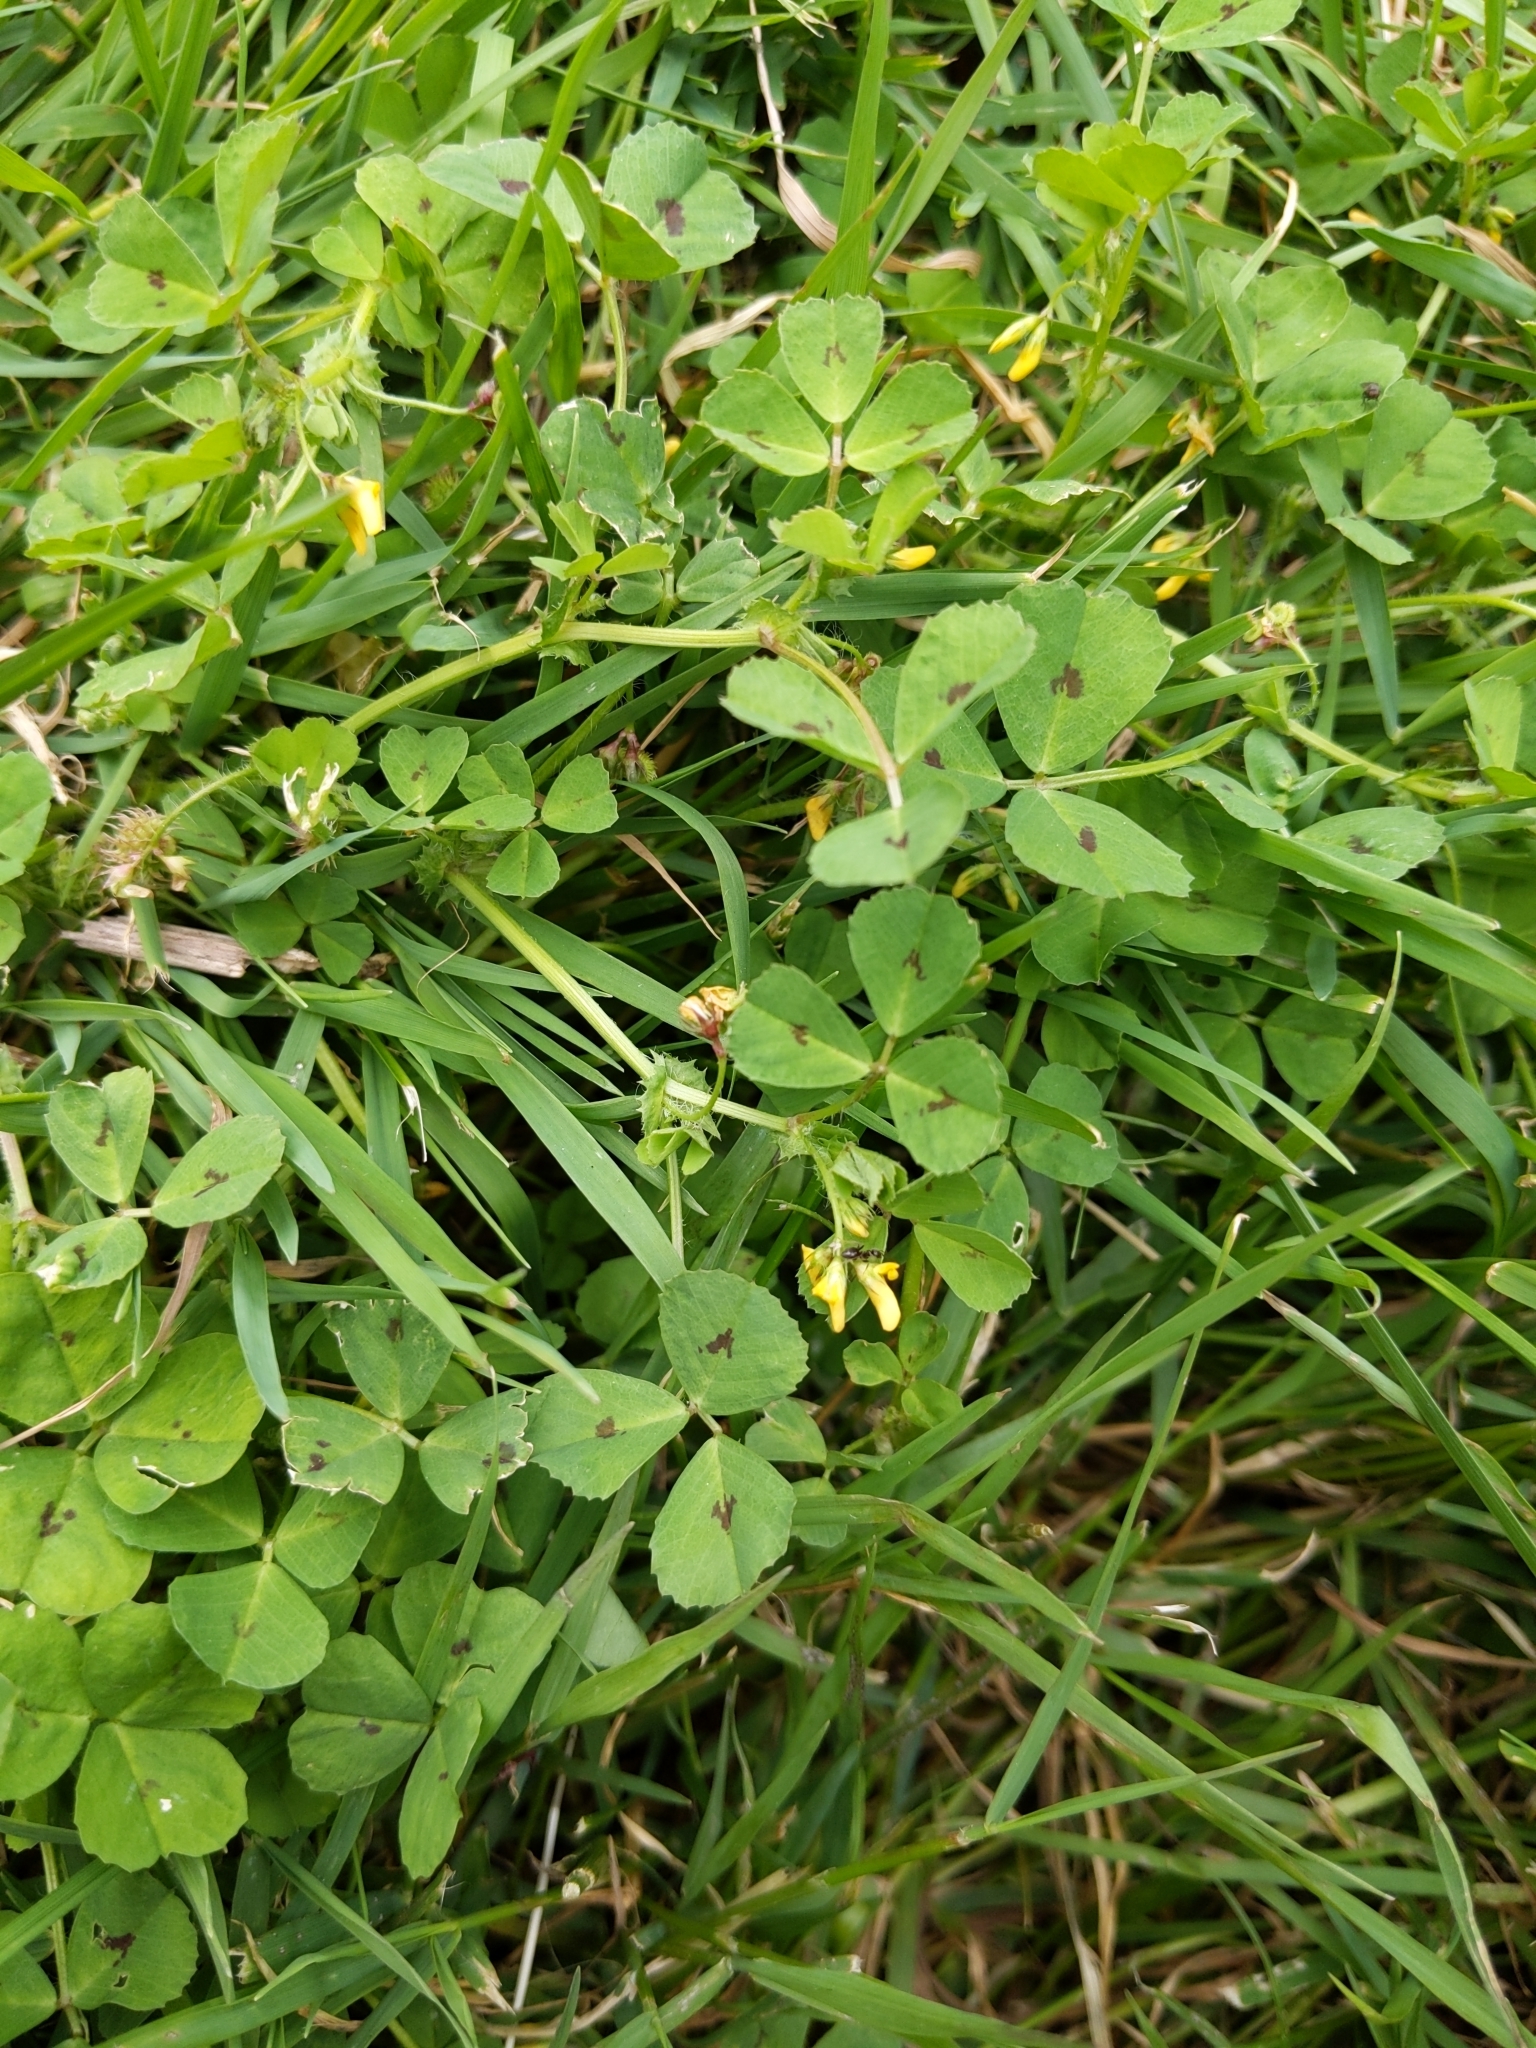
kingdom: Plantae
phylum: Tracheophyta
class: Magnoliopsida
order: Fabales
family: Fabaceae
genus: Medicago
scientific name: Medicago arabica
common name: Spotted medick
